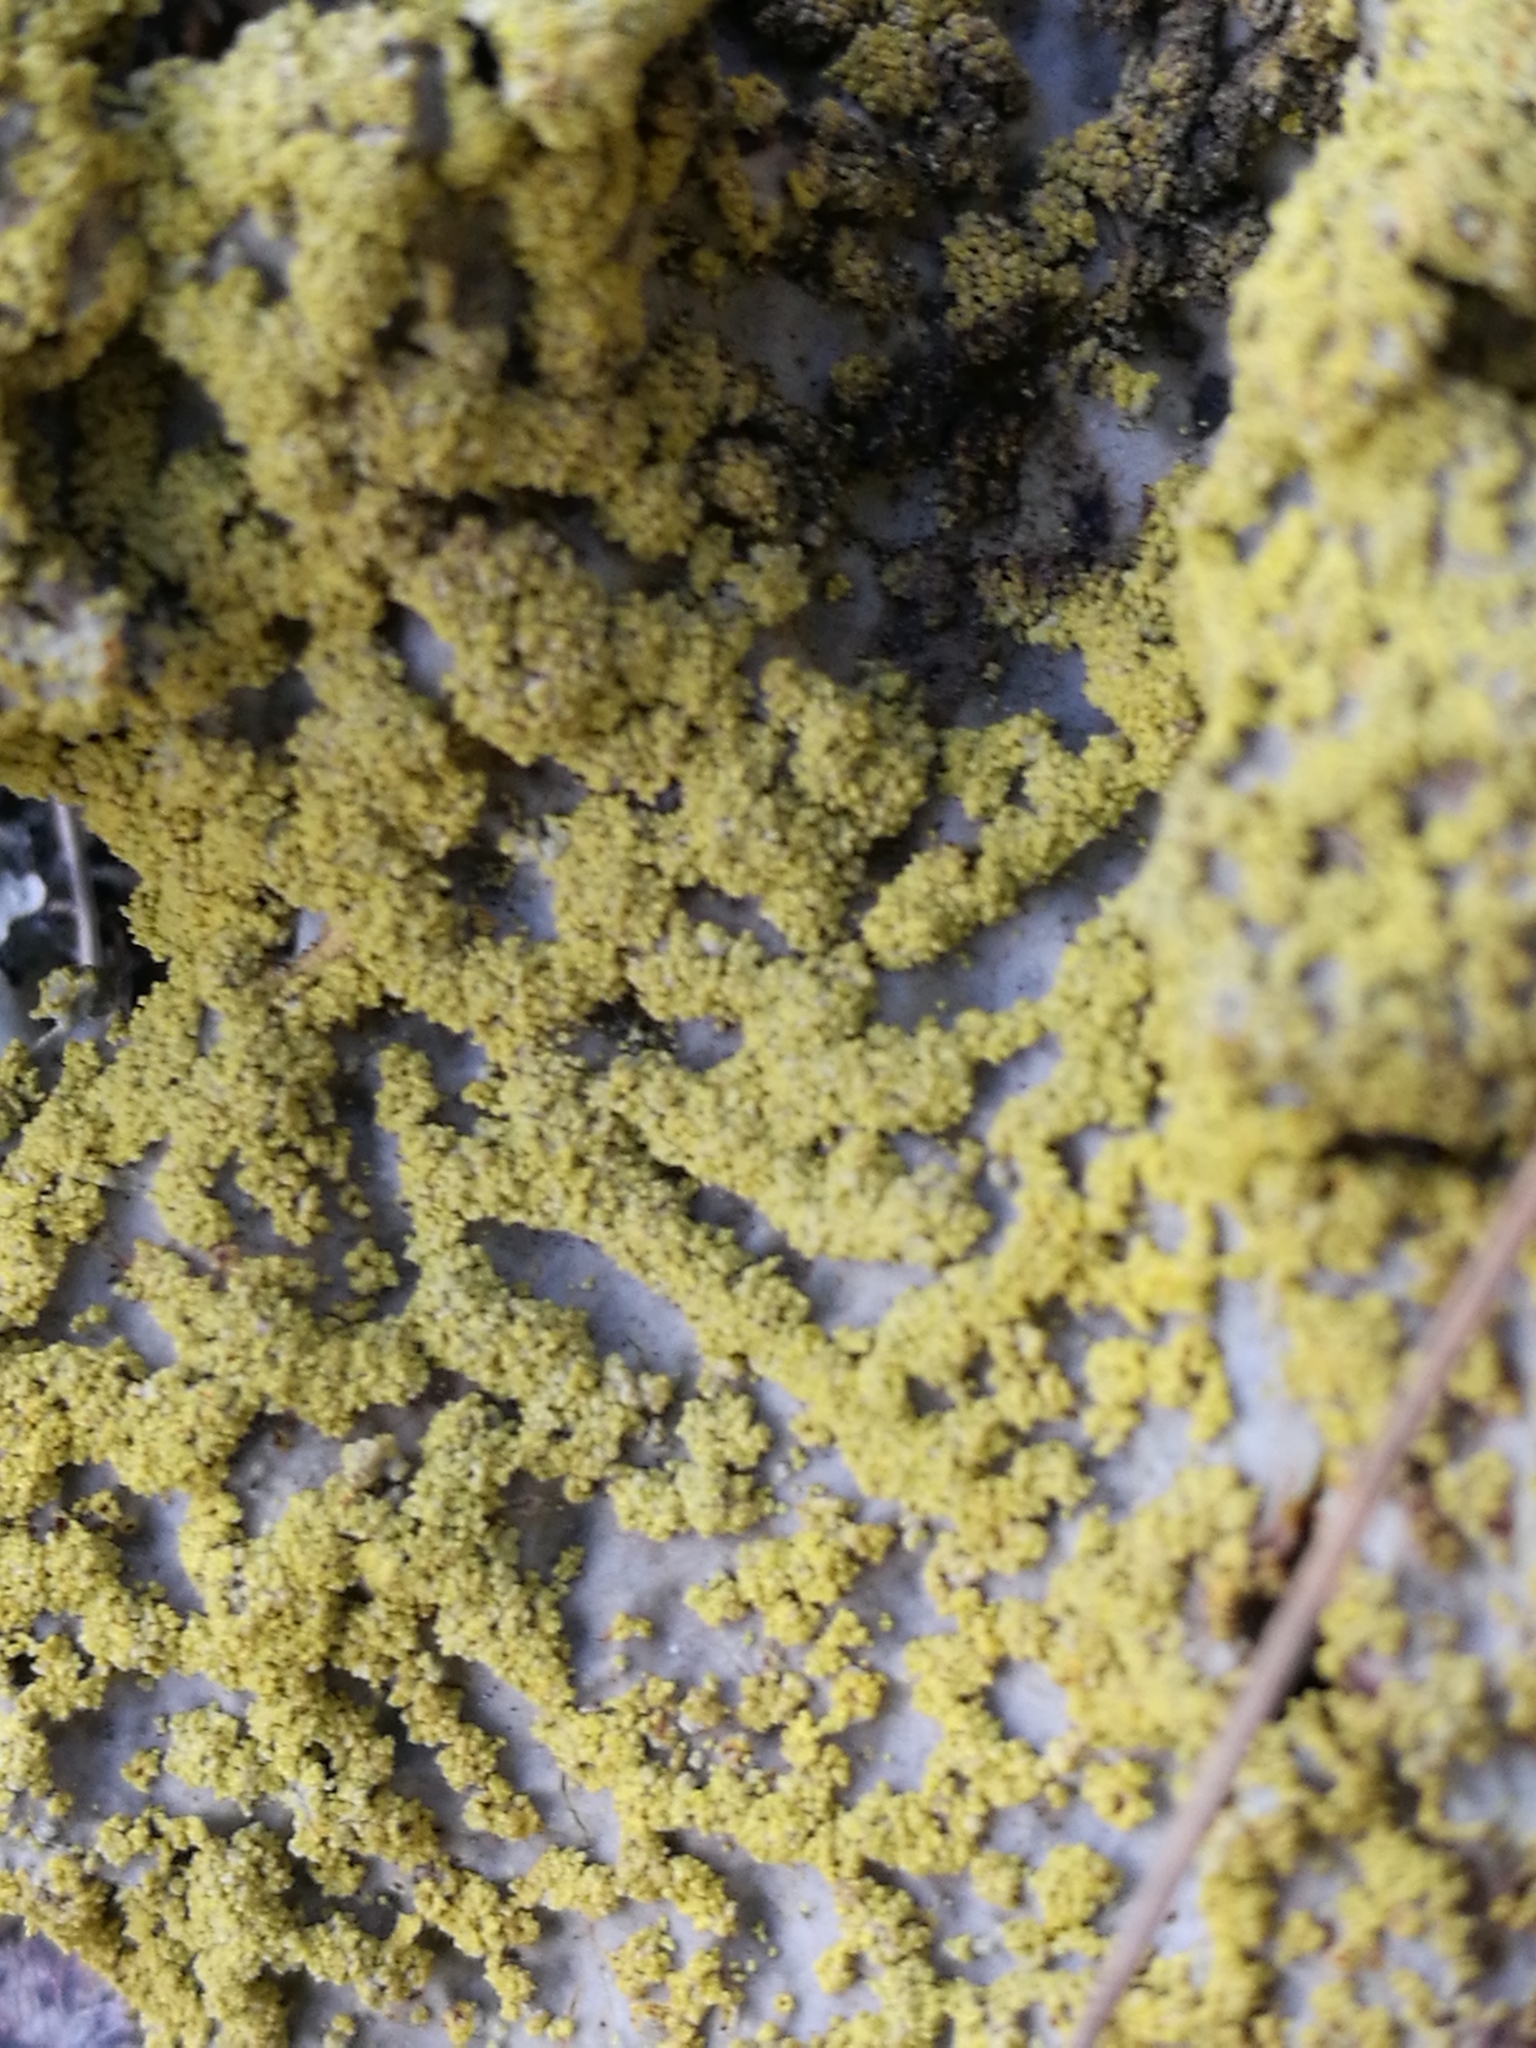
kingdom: Fungi
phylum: Ascomycota
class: Lecanoromycetes
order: Peltigerales
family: Lobariaceae
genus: Yarrumia
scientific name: Yarrumia colensoi
